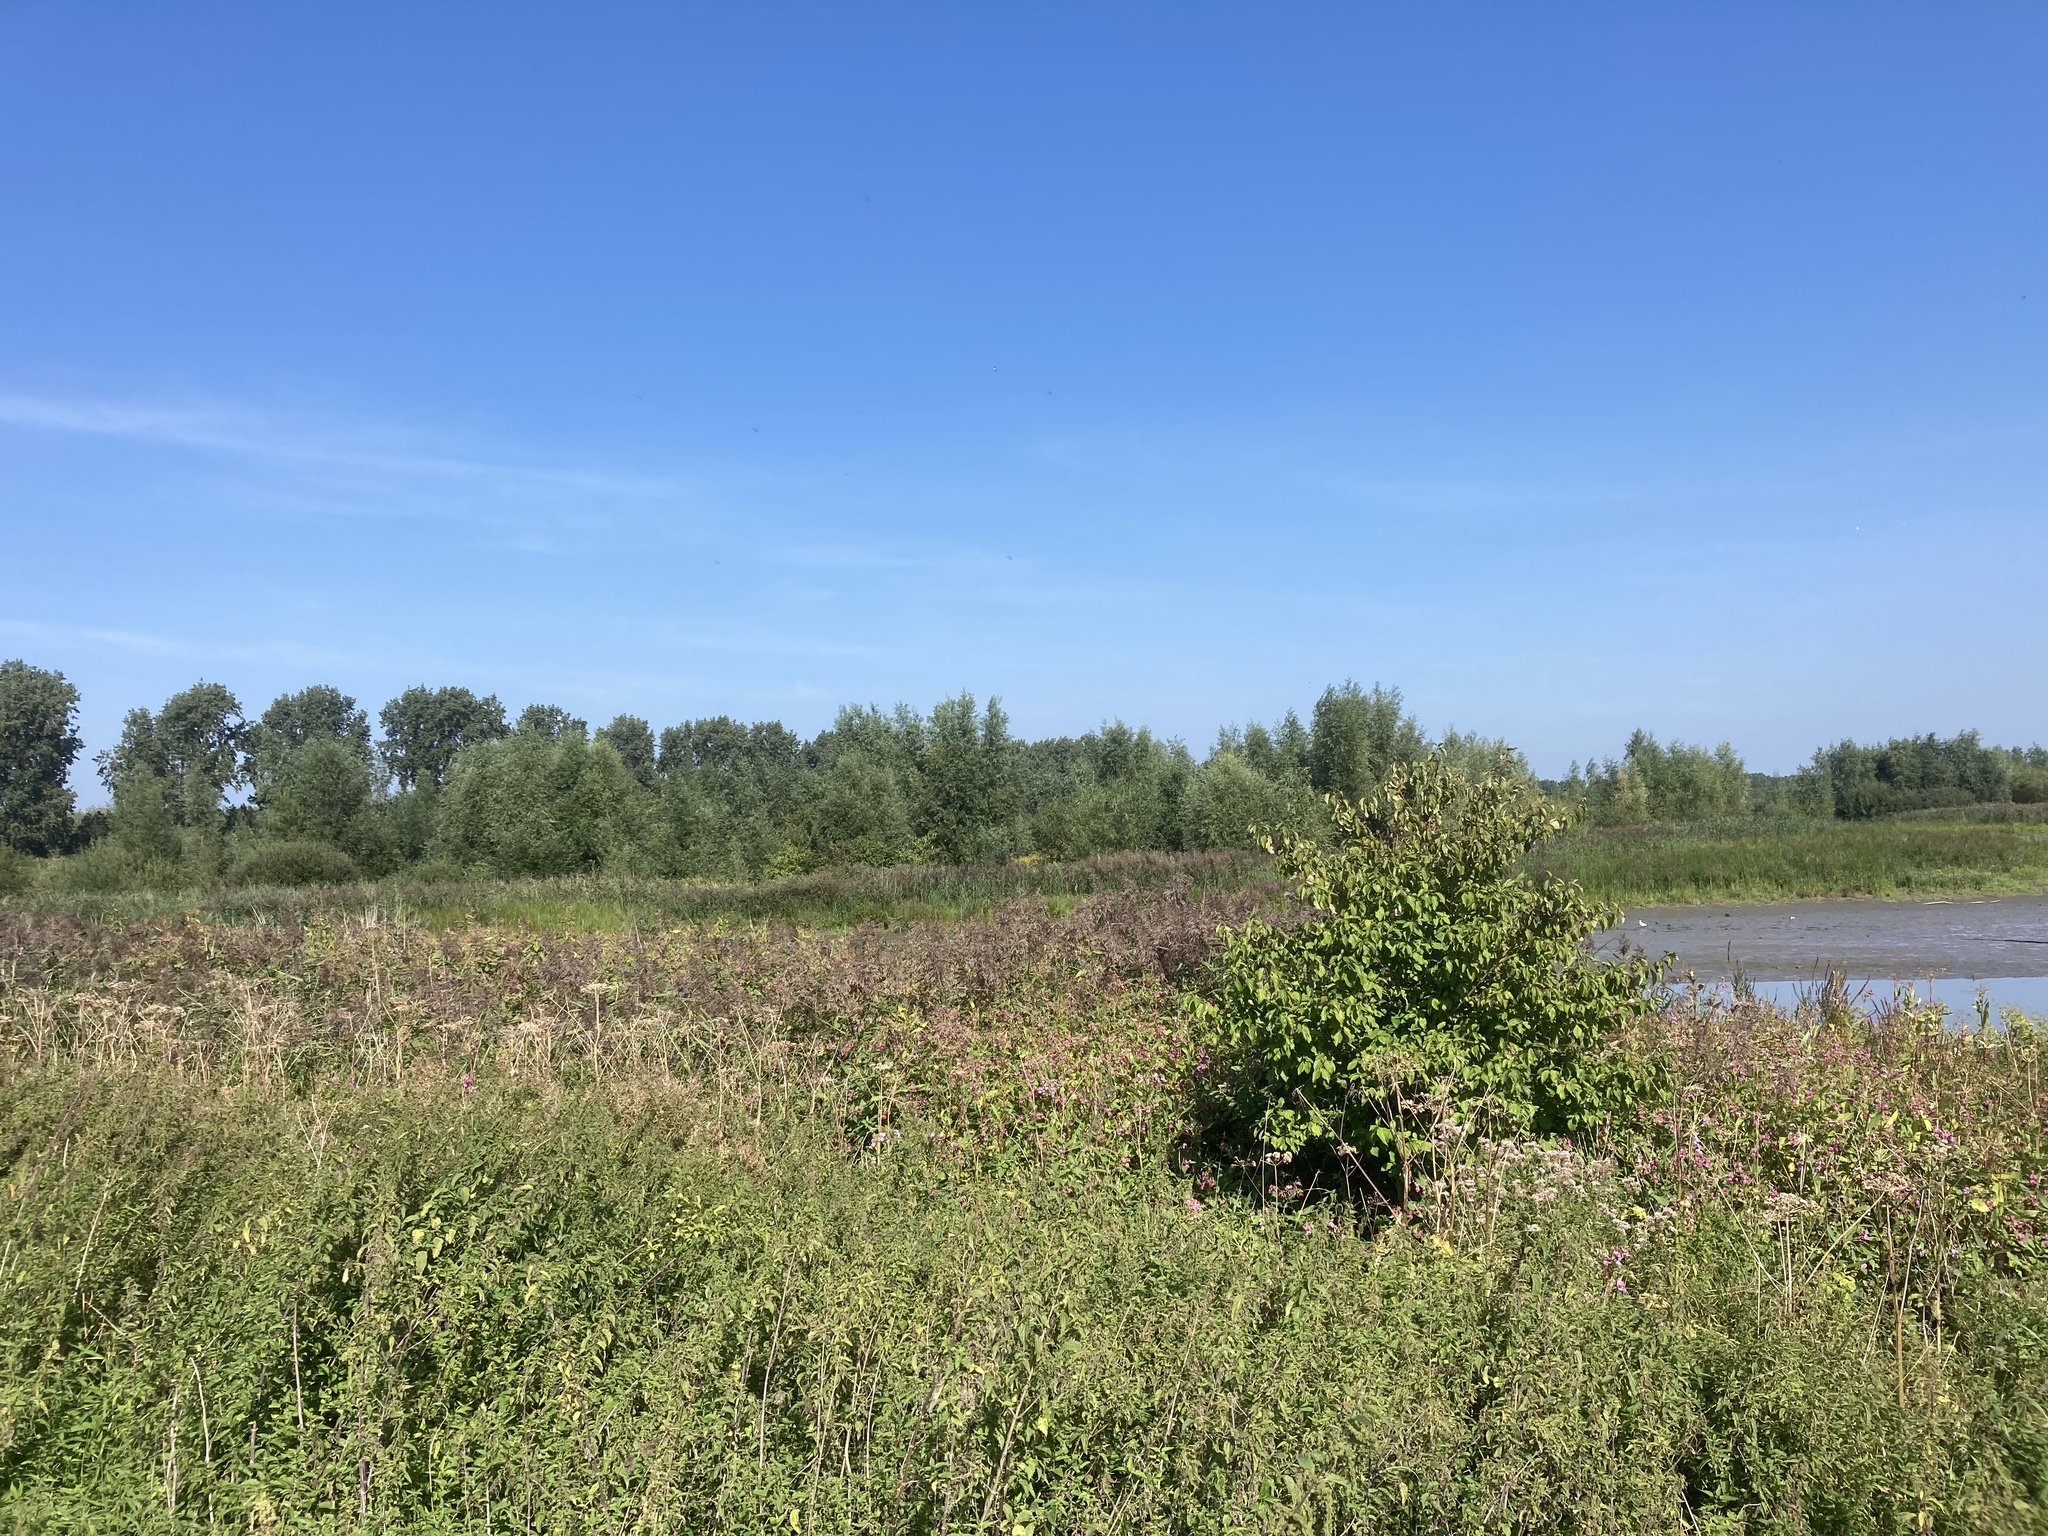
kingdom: Plantae
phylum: Tracheophyta
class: Liliopsida
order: Poales
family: Poaceae
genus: Phragmites
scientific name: Phragmites australis
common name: Common reed
